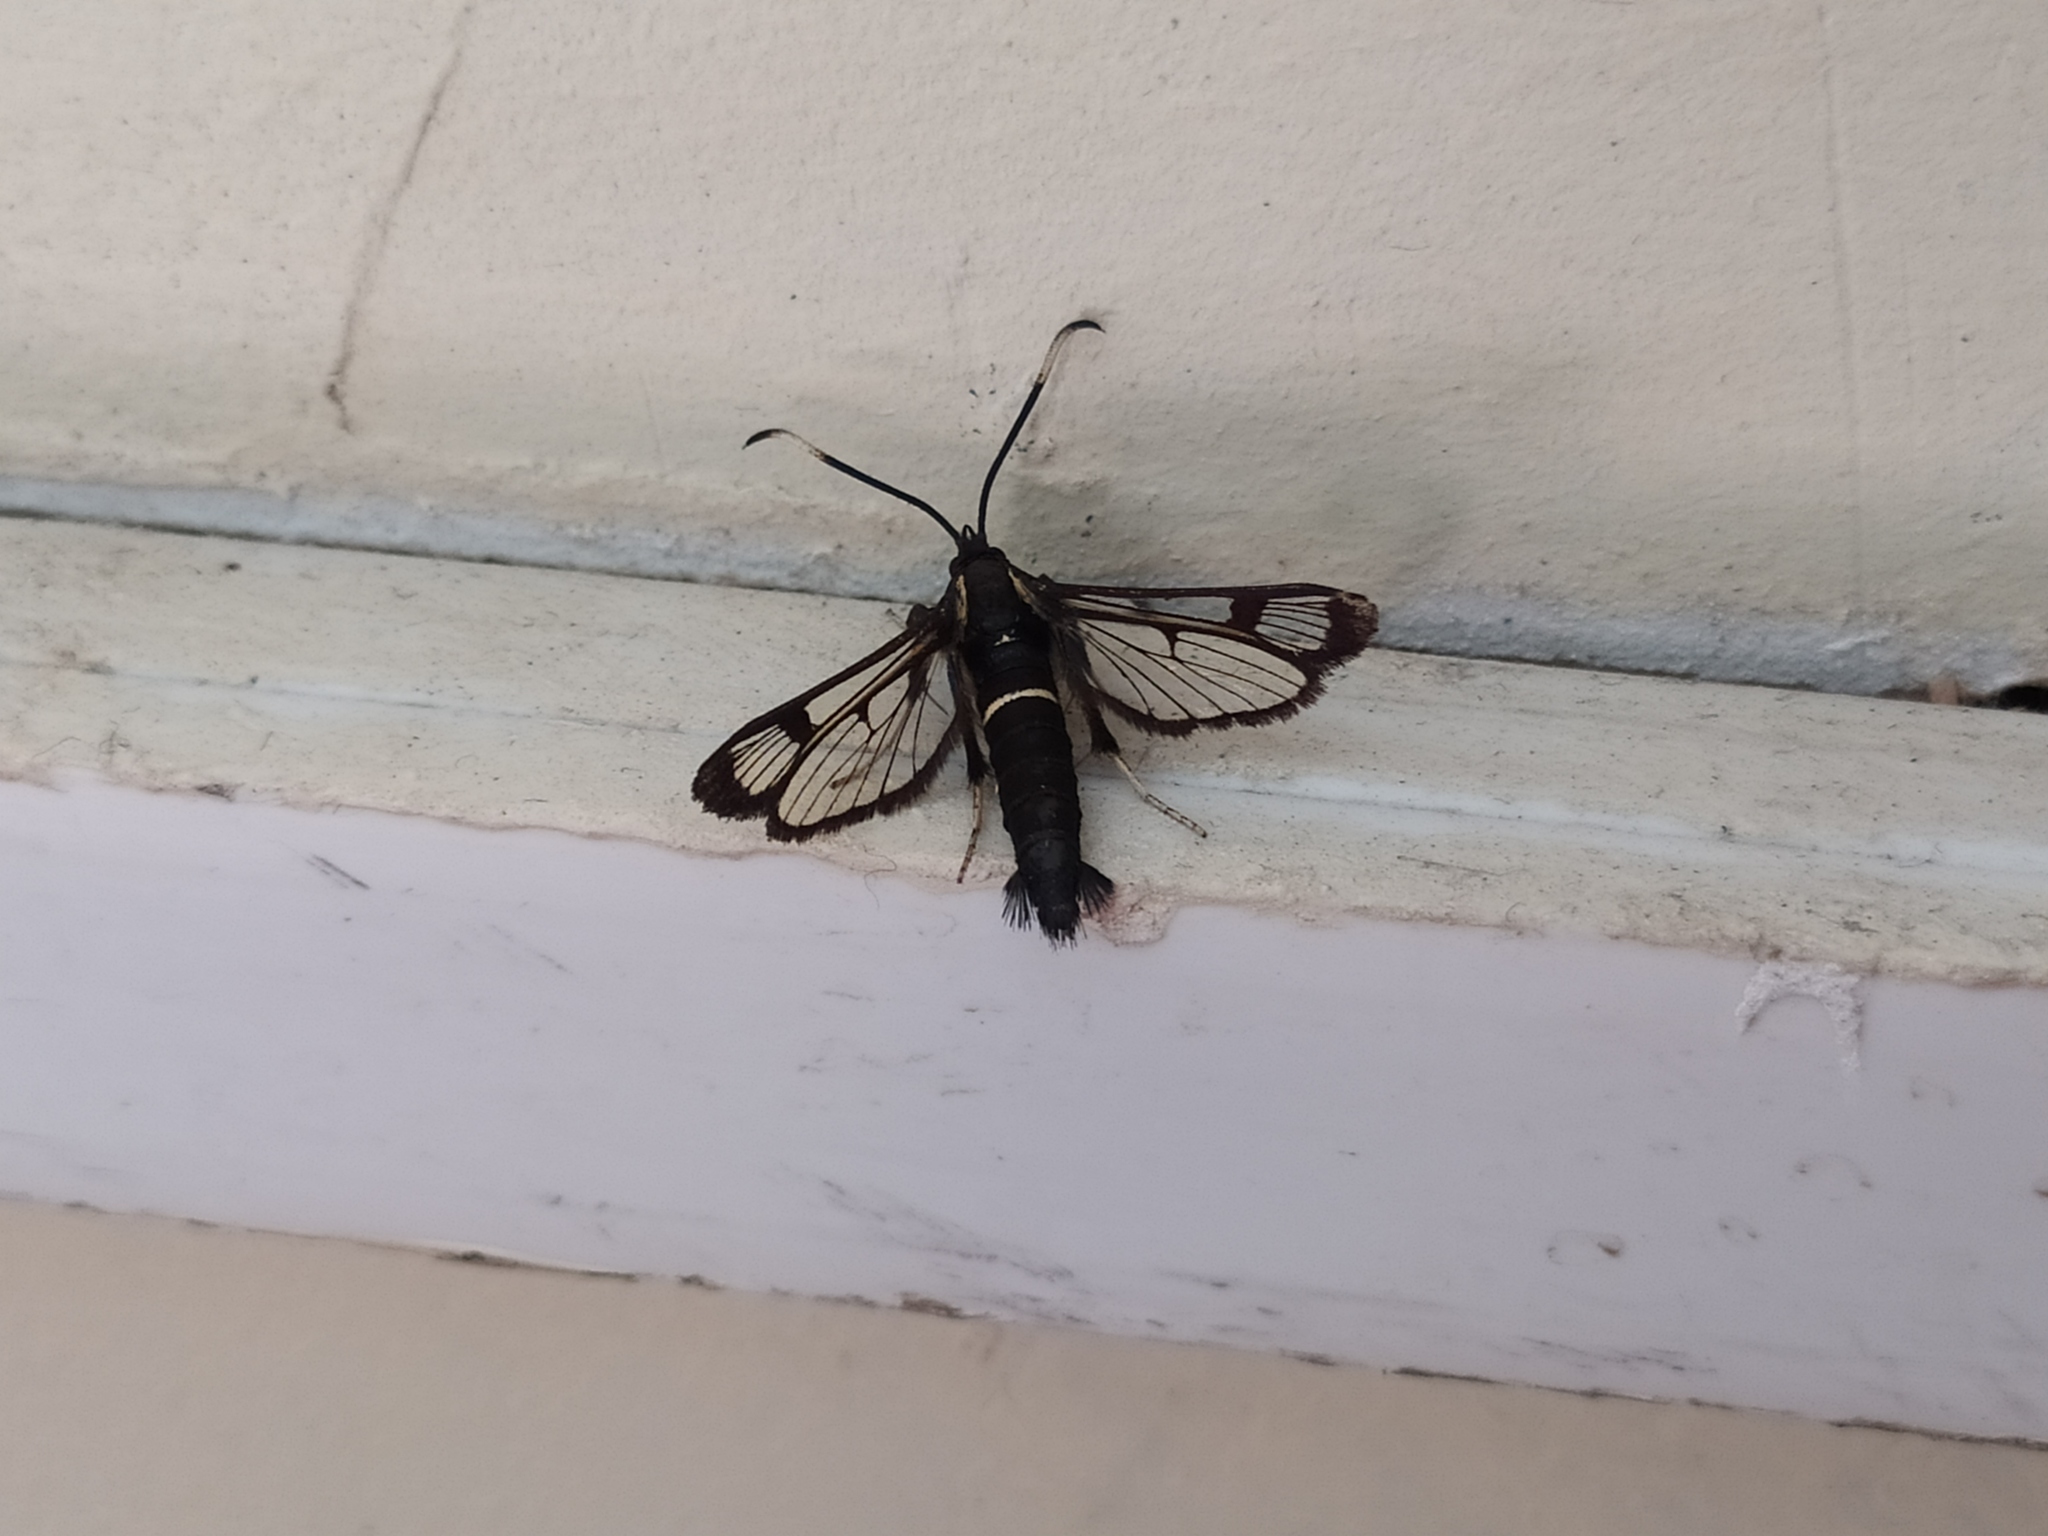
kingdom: Animalia
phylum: Arthropoda
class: Insecta
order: Lepidoptera
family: Sesiidae
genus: Synanthedon
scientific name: Synanthedon spheciformis
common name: White-barred clearwing
